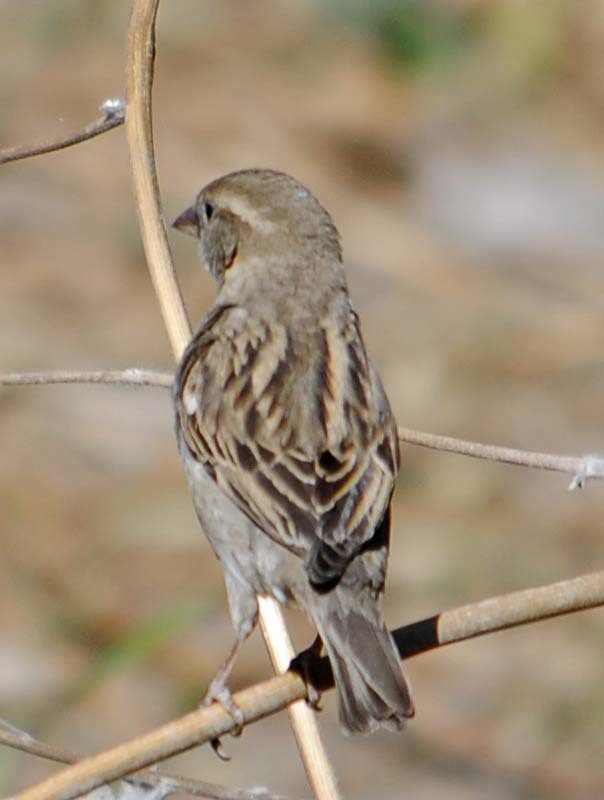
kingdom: Animalia
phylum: Chordata
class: Aves
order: Passeriformes
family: Passeridae
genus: Passer
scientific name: Passer domesticus
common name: House sparrow
